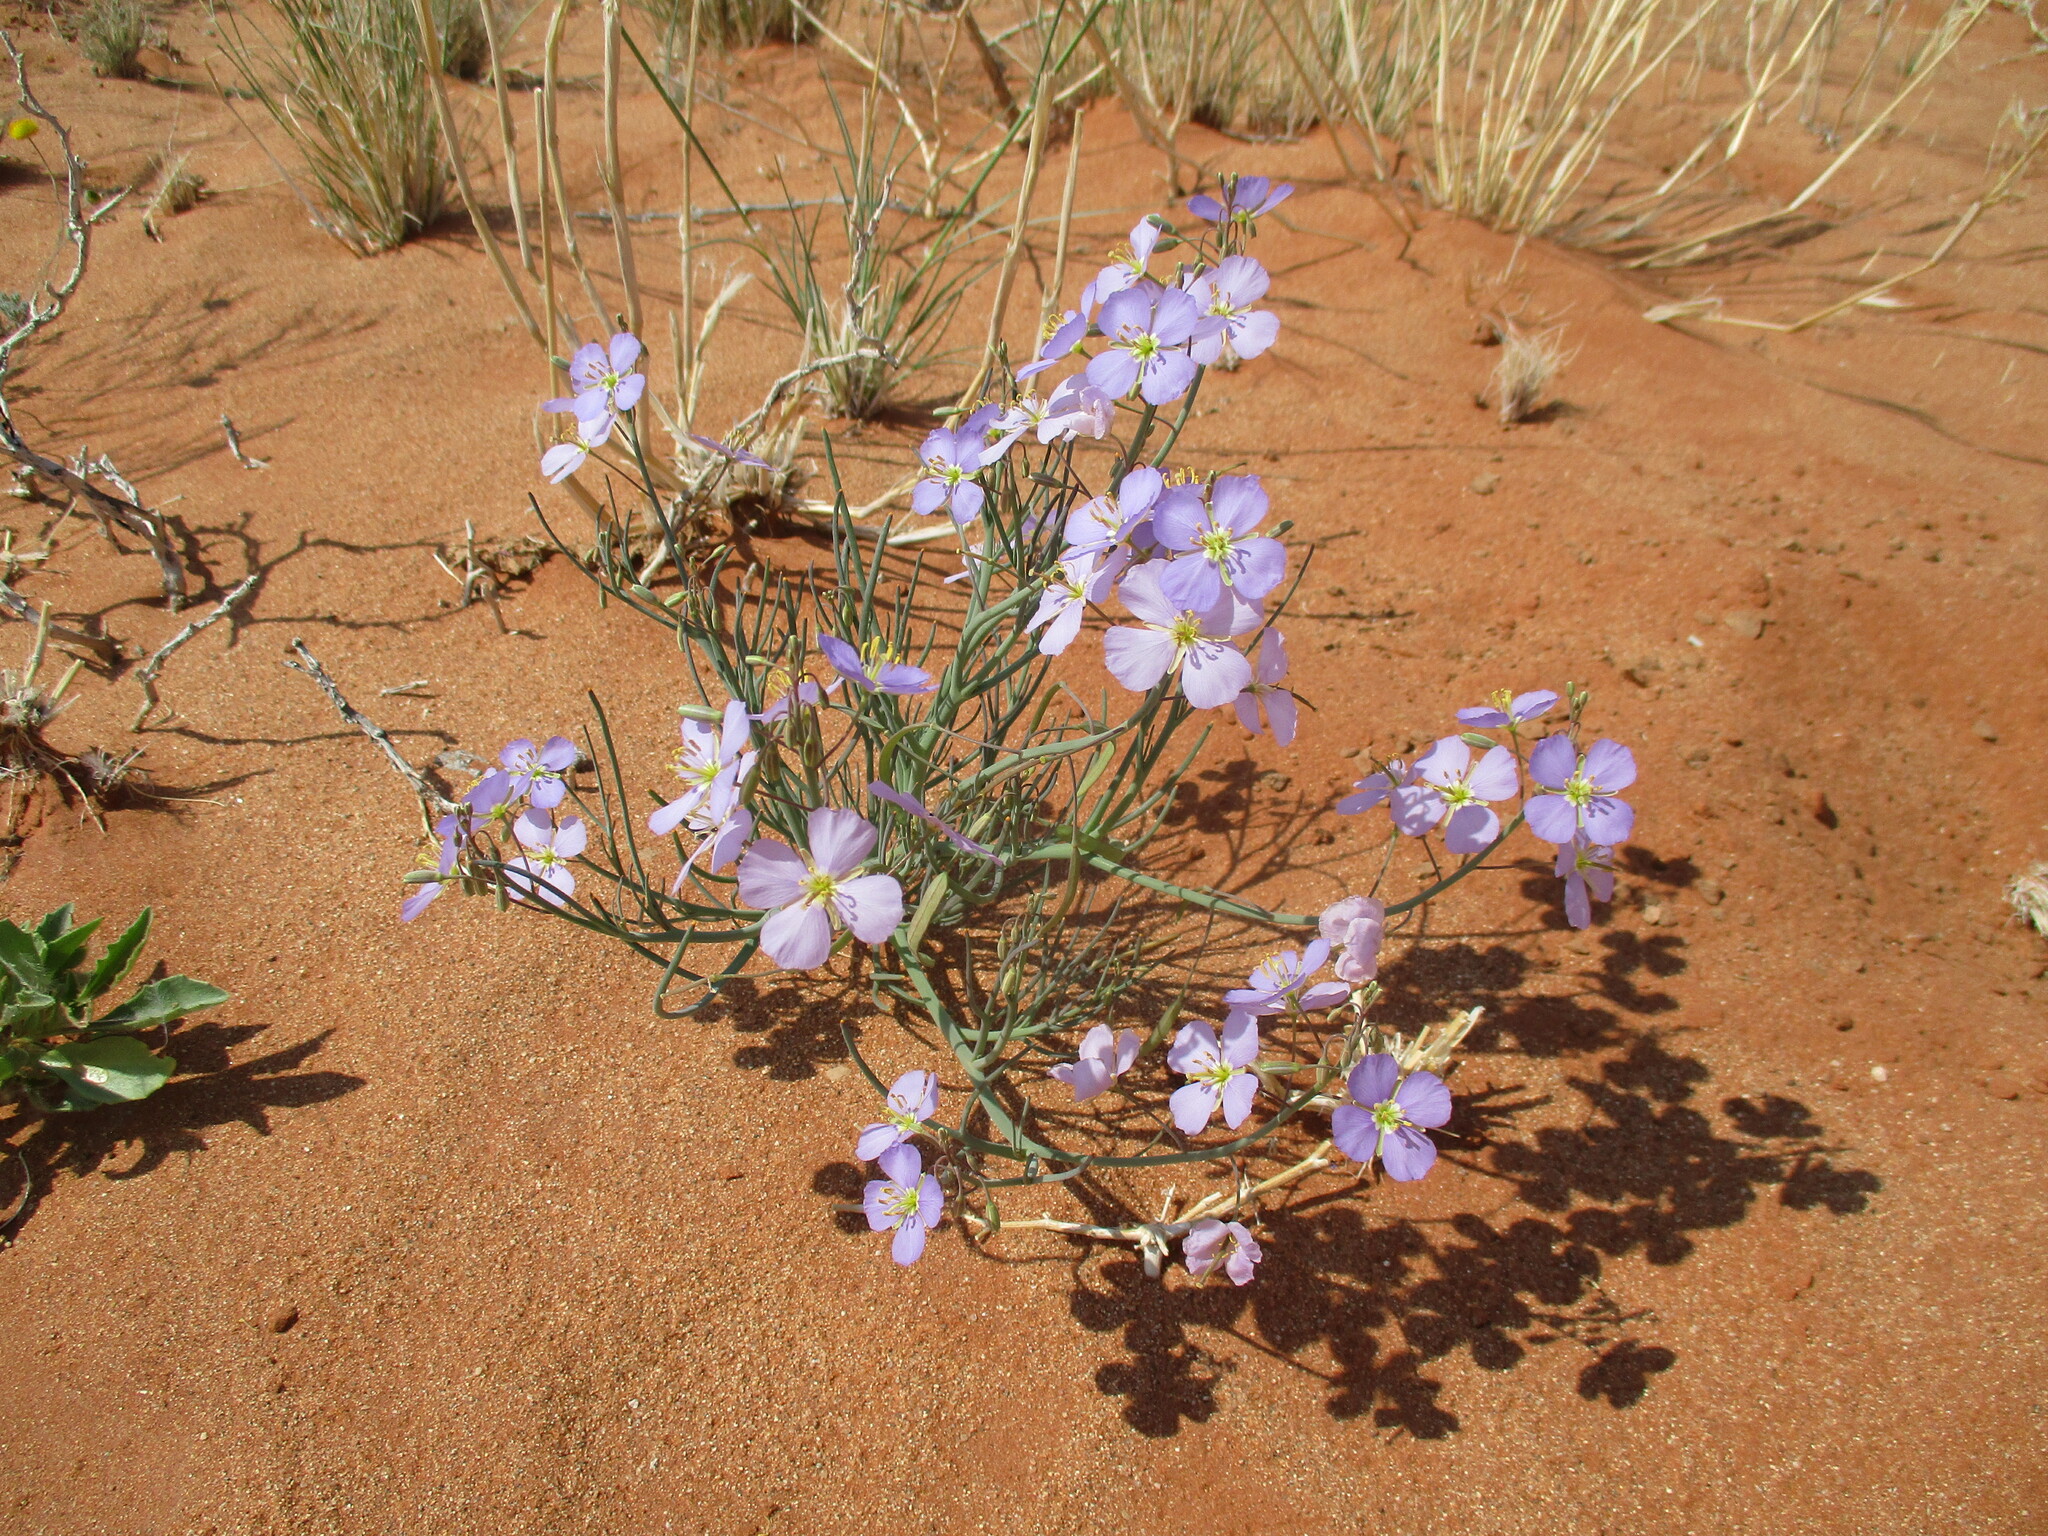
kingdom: Plantae
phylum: Tracheophyta
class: Magnoliopsida
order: Brassicales
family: Brassicaceae
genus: Heliophila
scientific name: Heliophila deserticola
